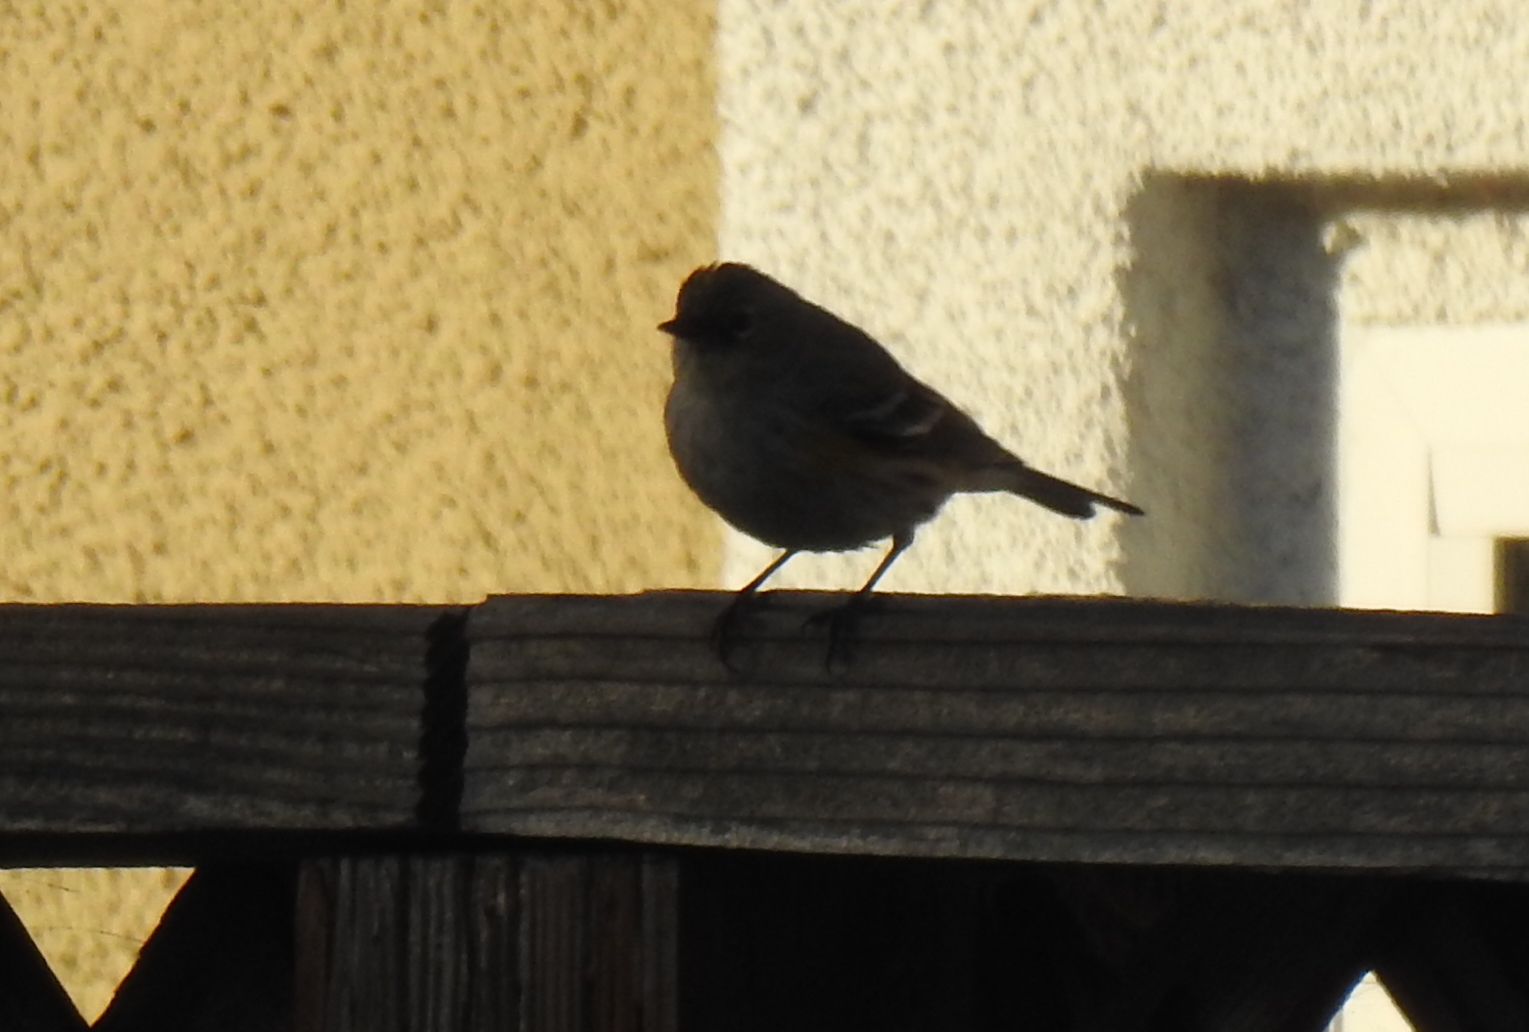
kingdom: Animalia
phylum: Chordata
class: Aves
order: Passeriformes
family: Parulidae
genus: Setophaga
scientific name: Setophaga coronata
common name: Myrtle warbler
